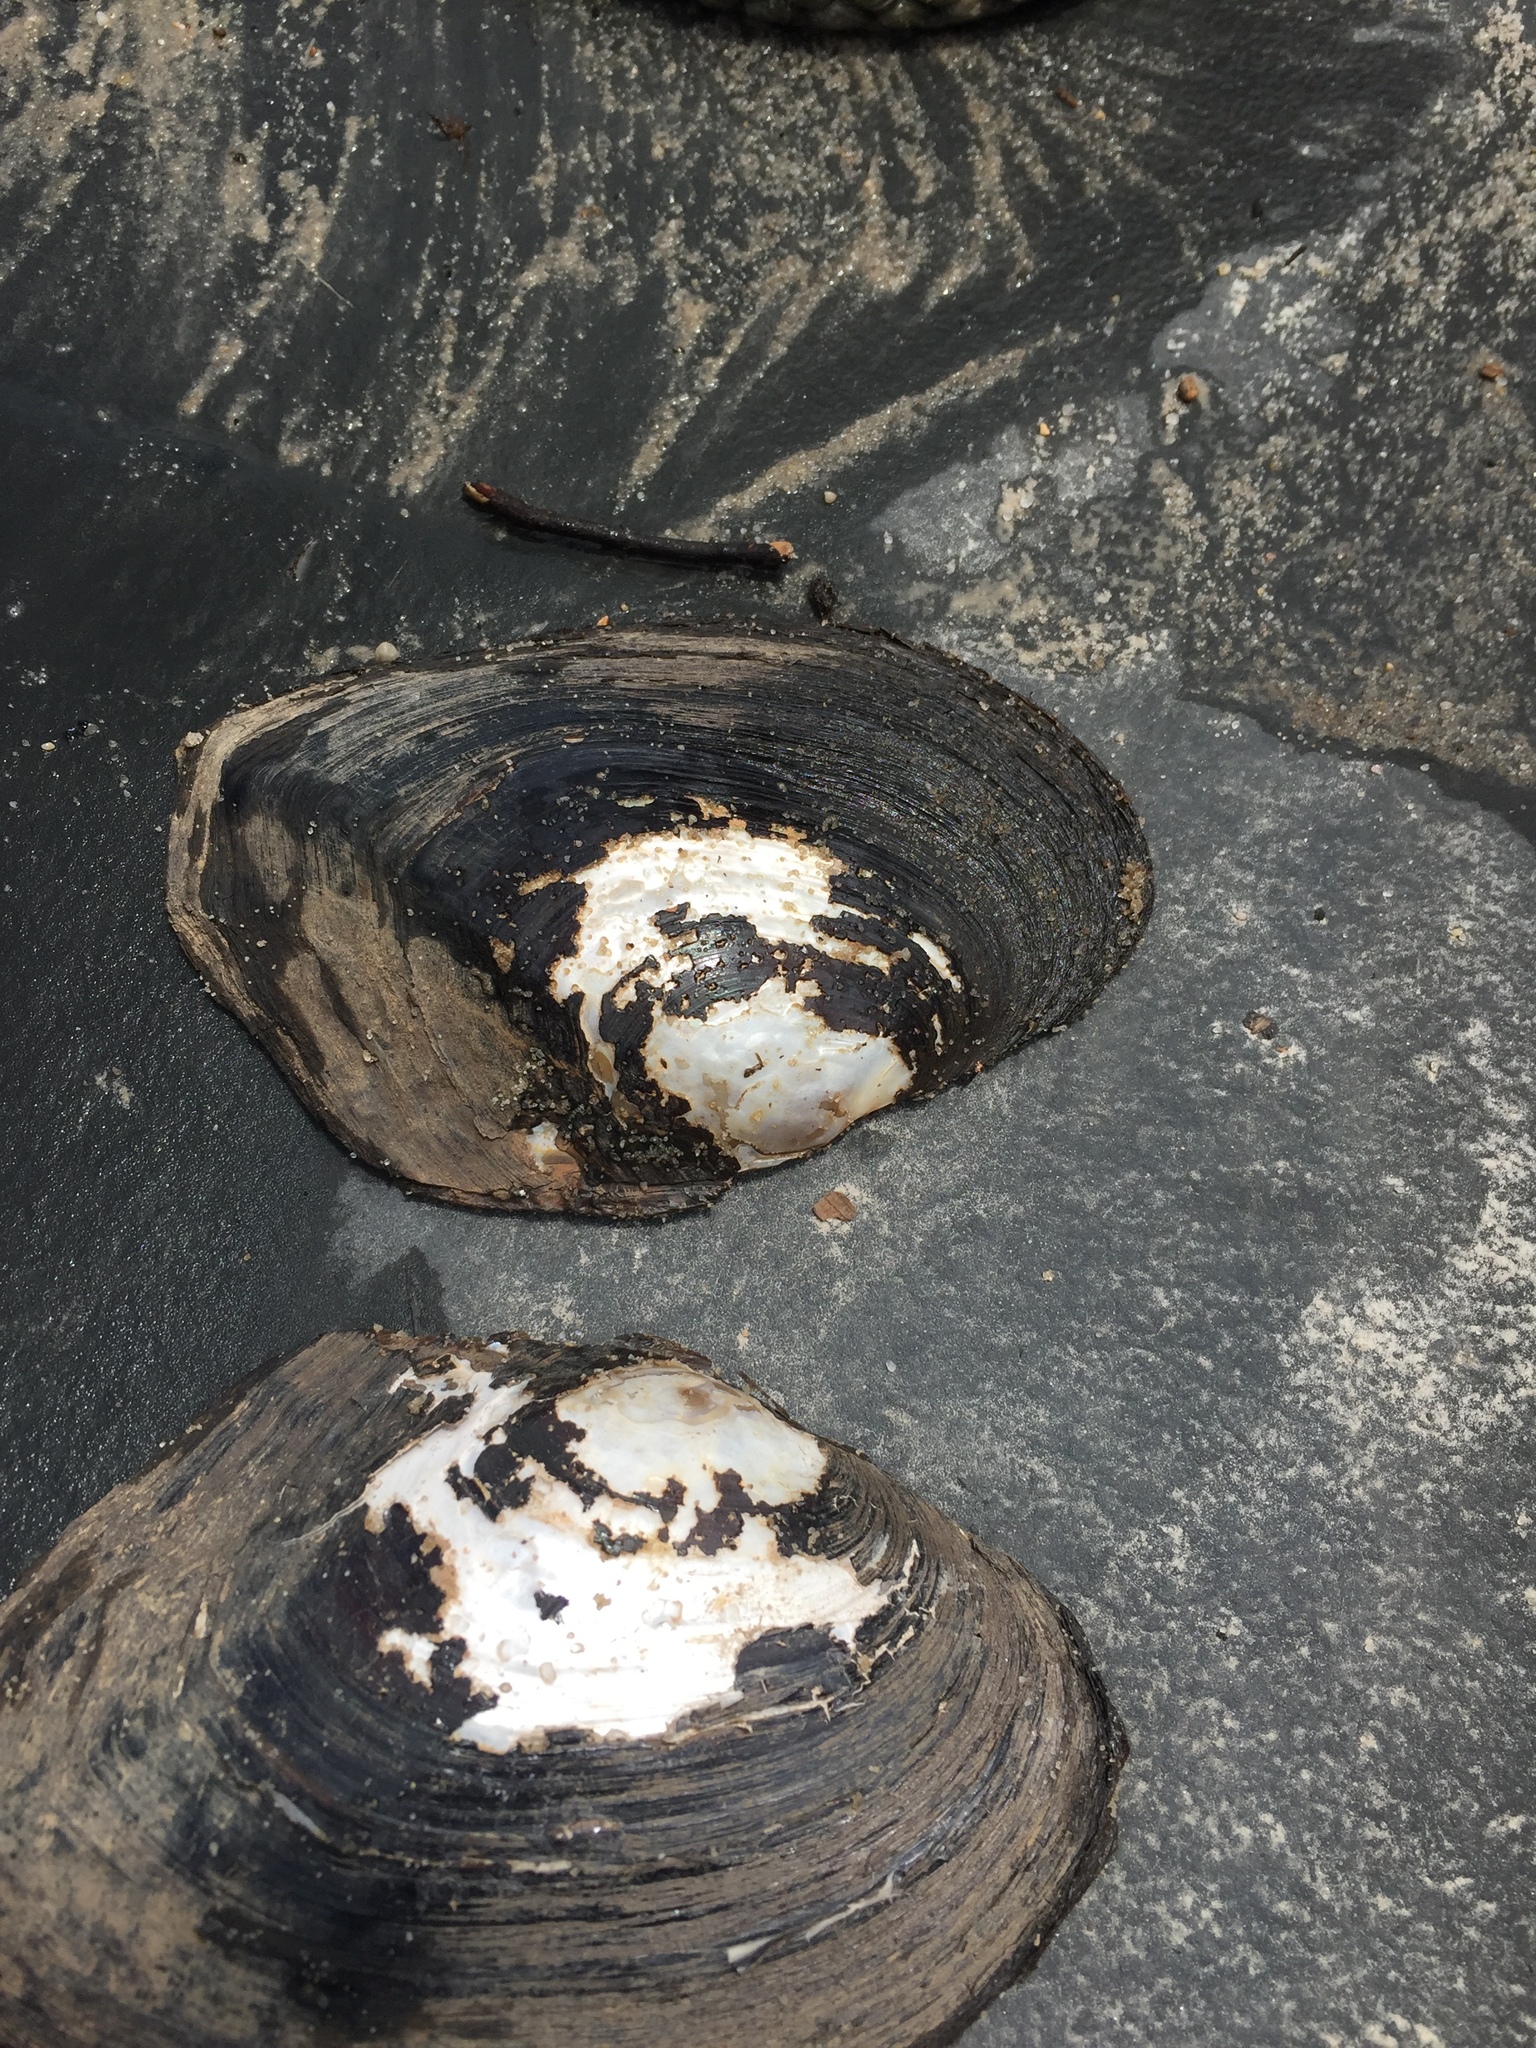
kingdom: Animalia
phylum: Mollusca
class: Bivalvia
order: Unionida
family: Unionidae
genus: Lasmigona
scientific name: Lasmigona complanata
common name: White heelsplitter
